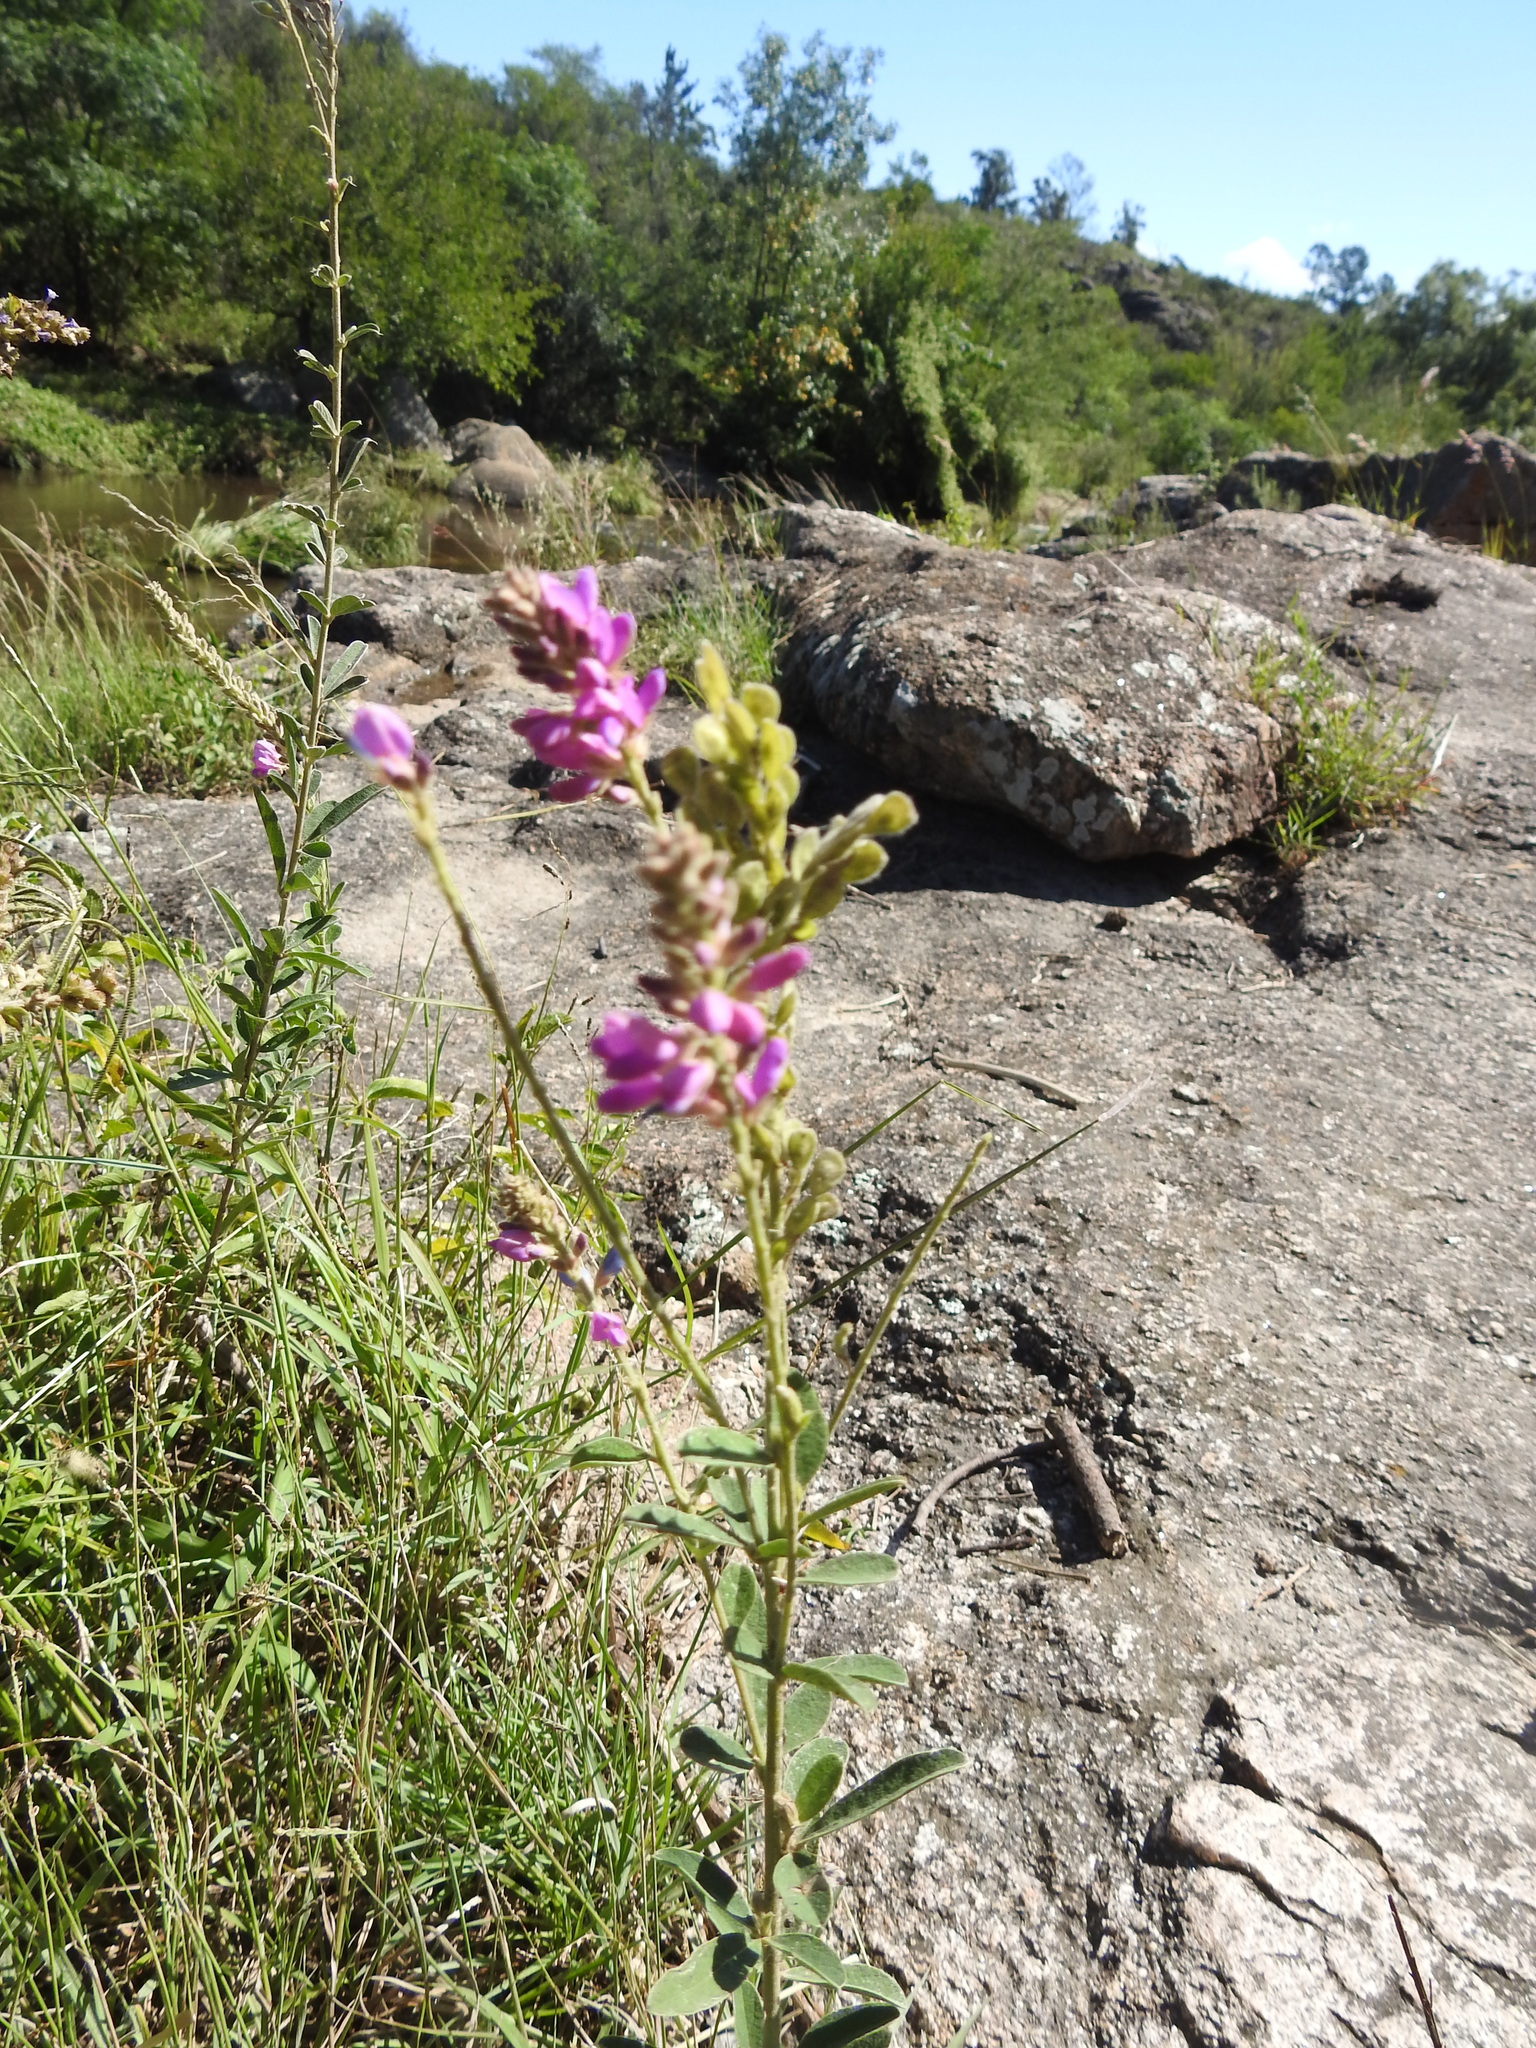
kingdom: Plantae
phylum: Tracheophyta
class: Magnoliopsida
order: Fabales
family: Fabaceae
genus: Desmodium
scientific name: Desmodium cuneatum
